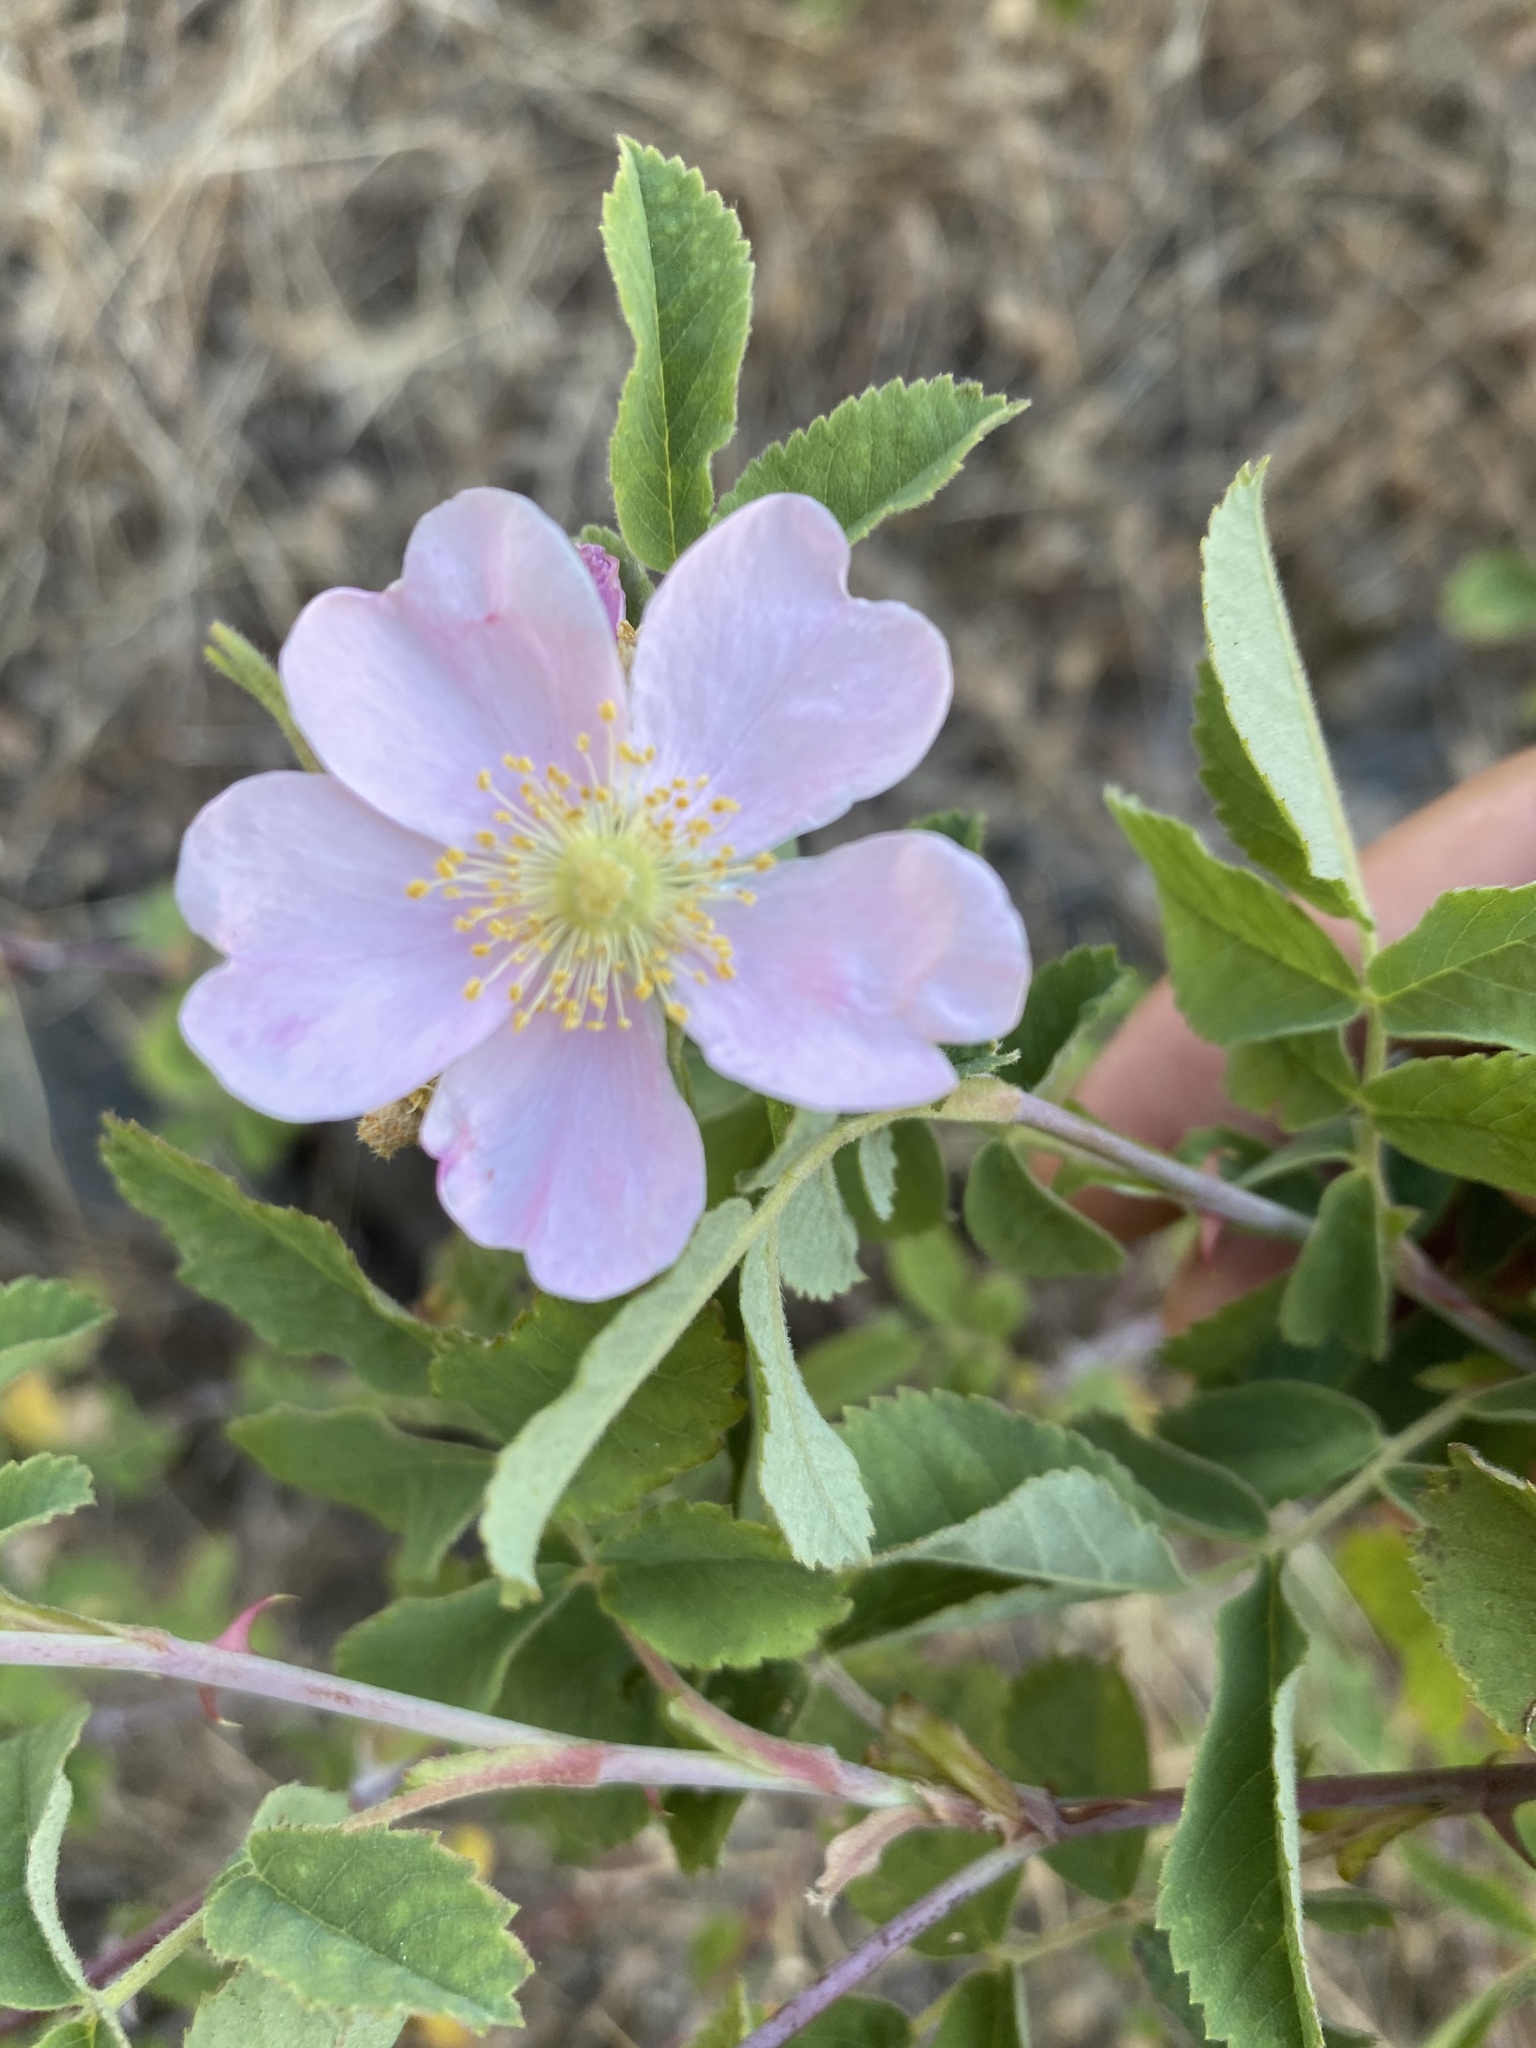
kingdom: Plantae
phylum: Tracheophyta
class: Magnoliopsida
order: Rosales
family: Rosaceae
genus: Rosa
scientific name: Rosa californica
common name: California rose
